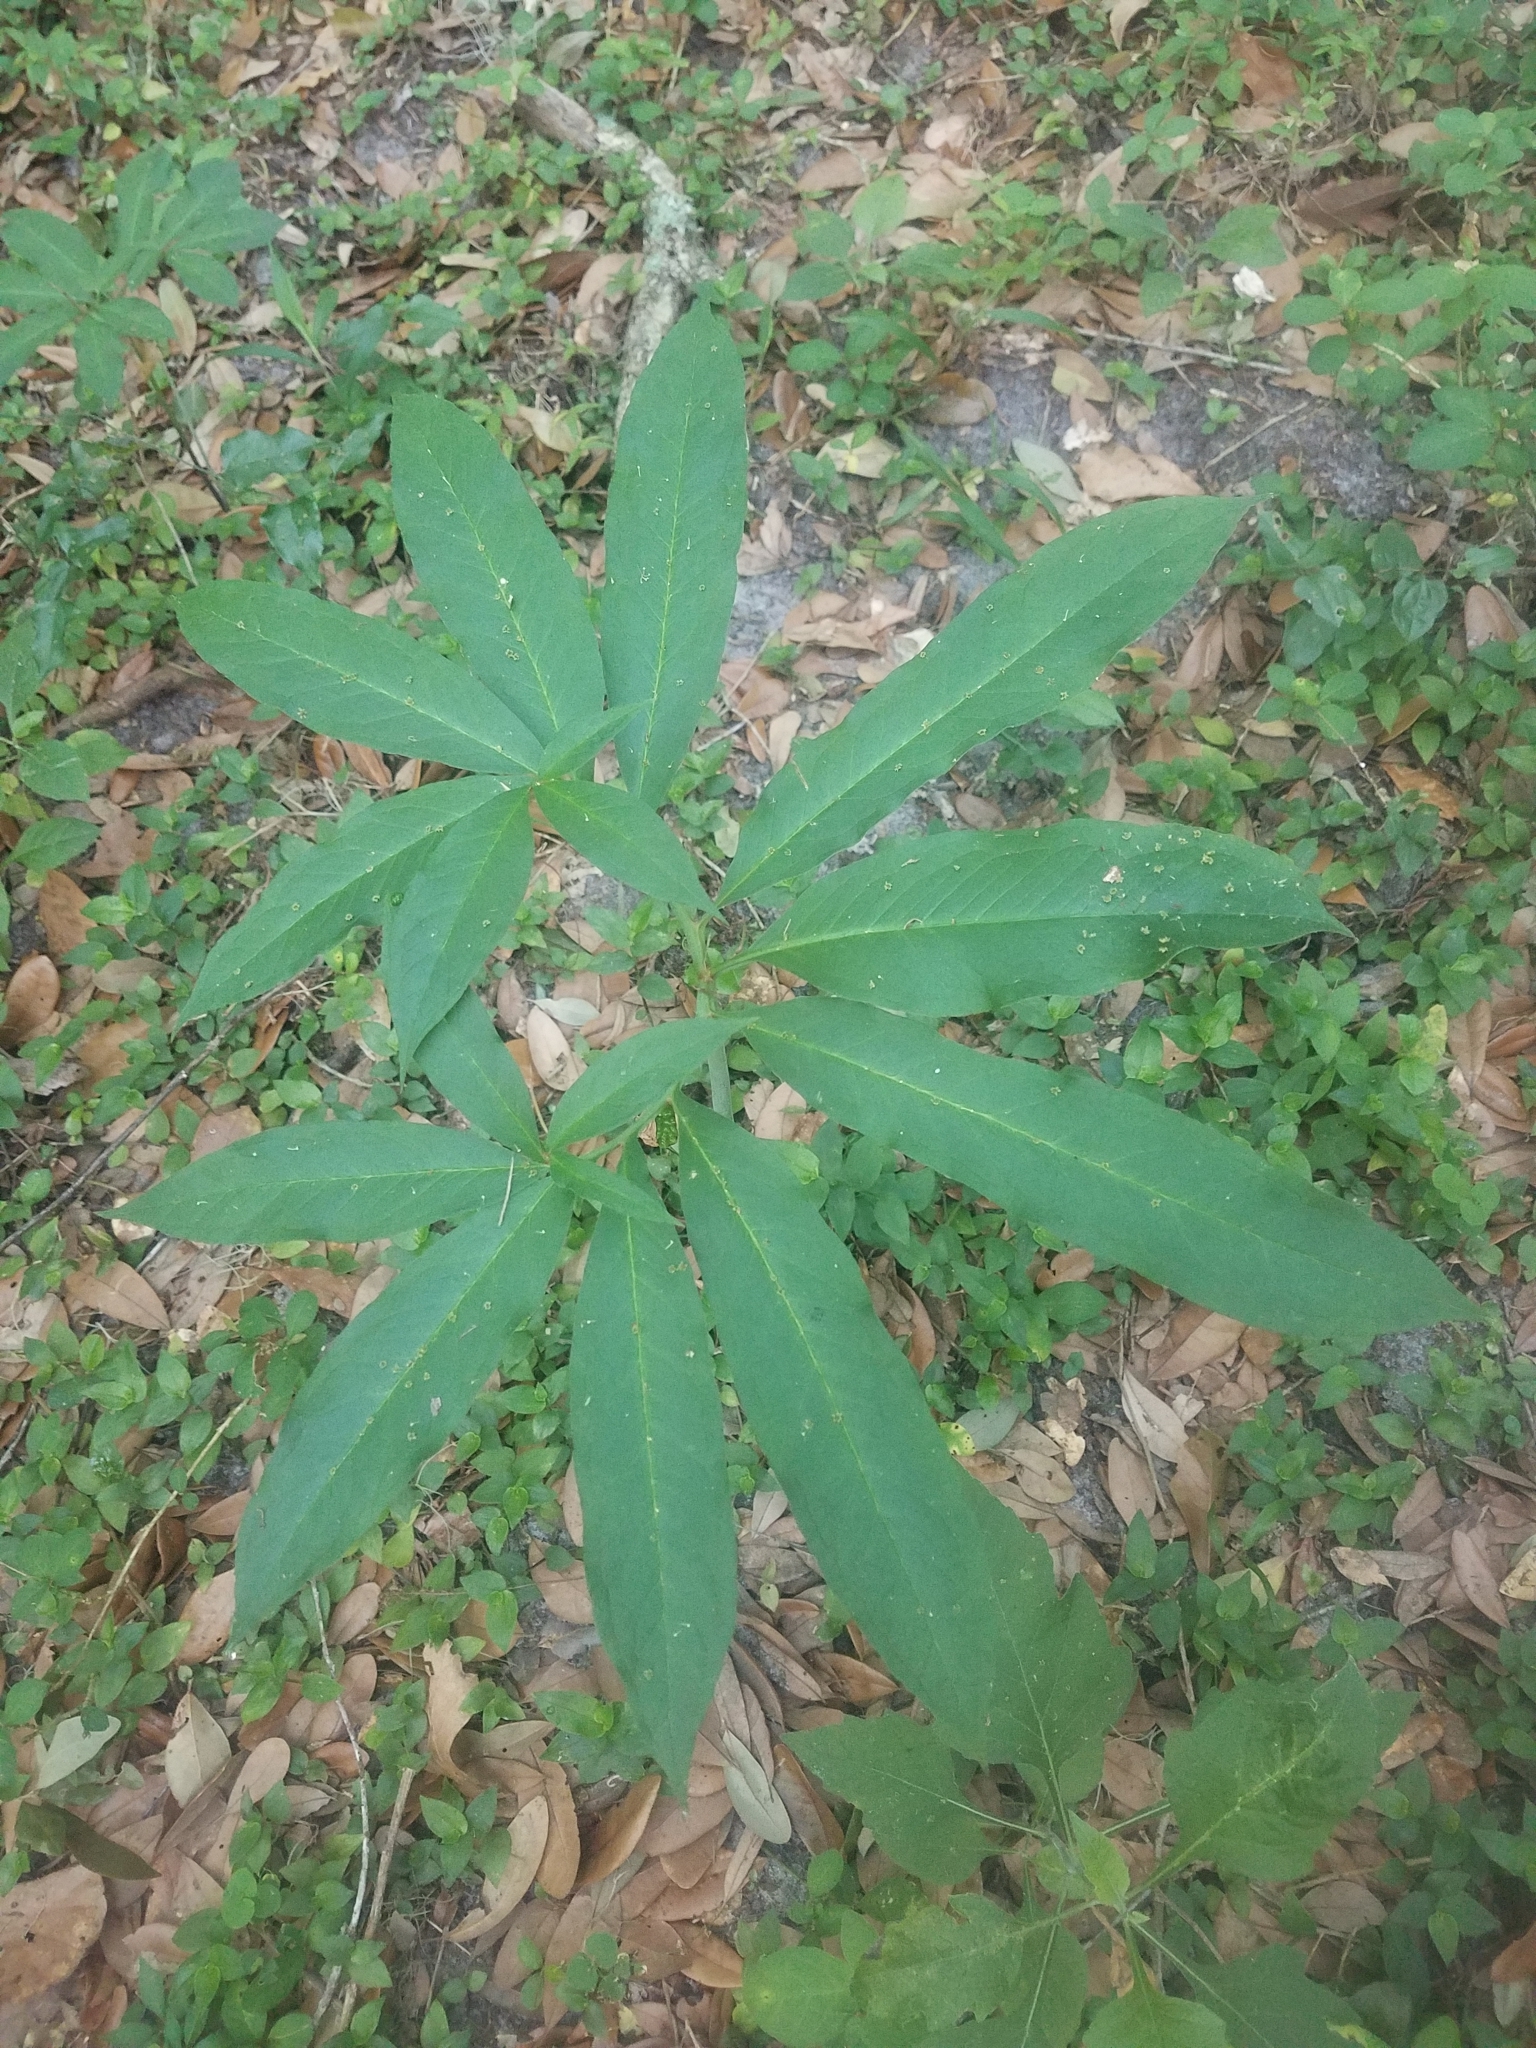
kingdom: Plantae
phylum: Tracheophyta
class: Liliopsida
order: Alismatales
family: Araceae
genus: Arisaema
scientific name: Arisaema dracontium
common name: Dragon-arum
